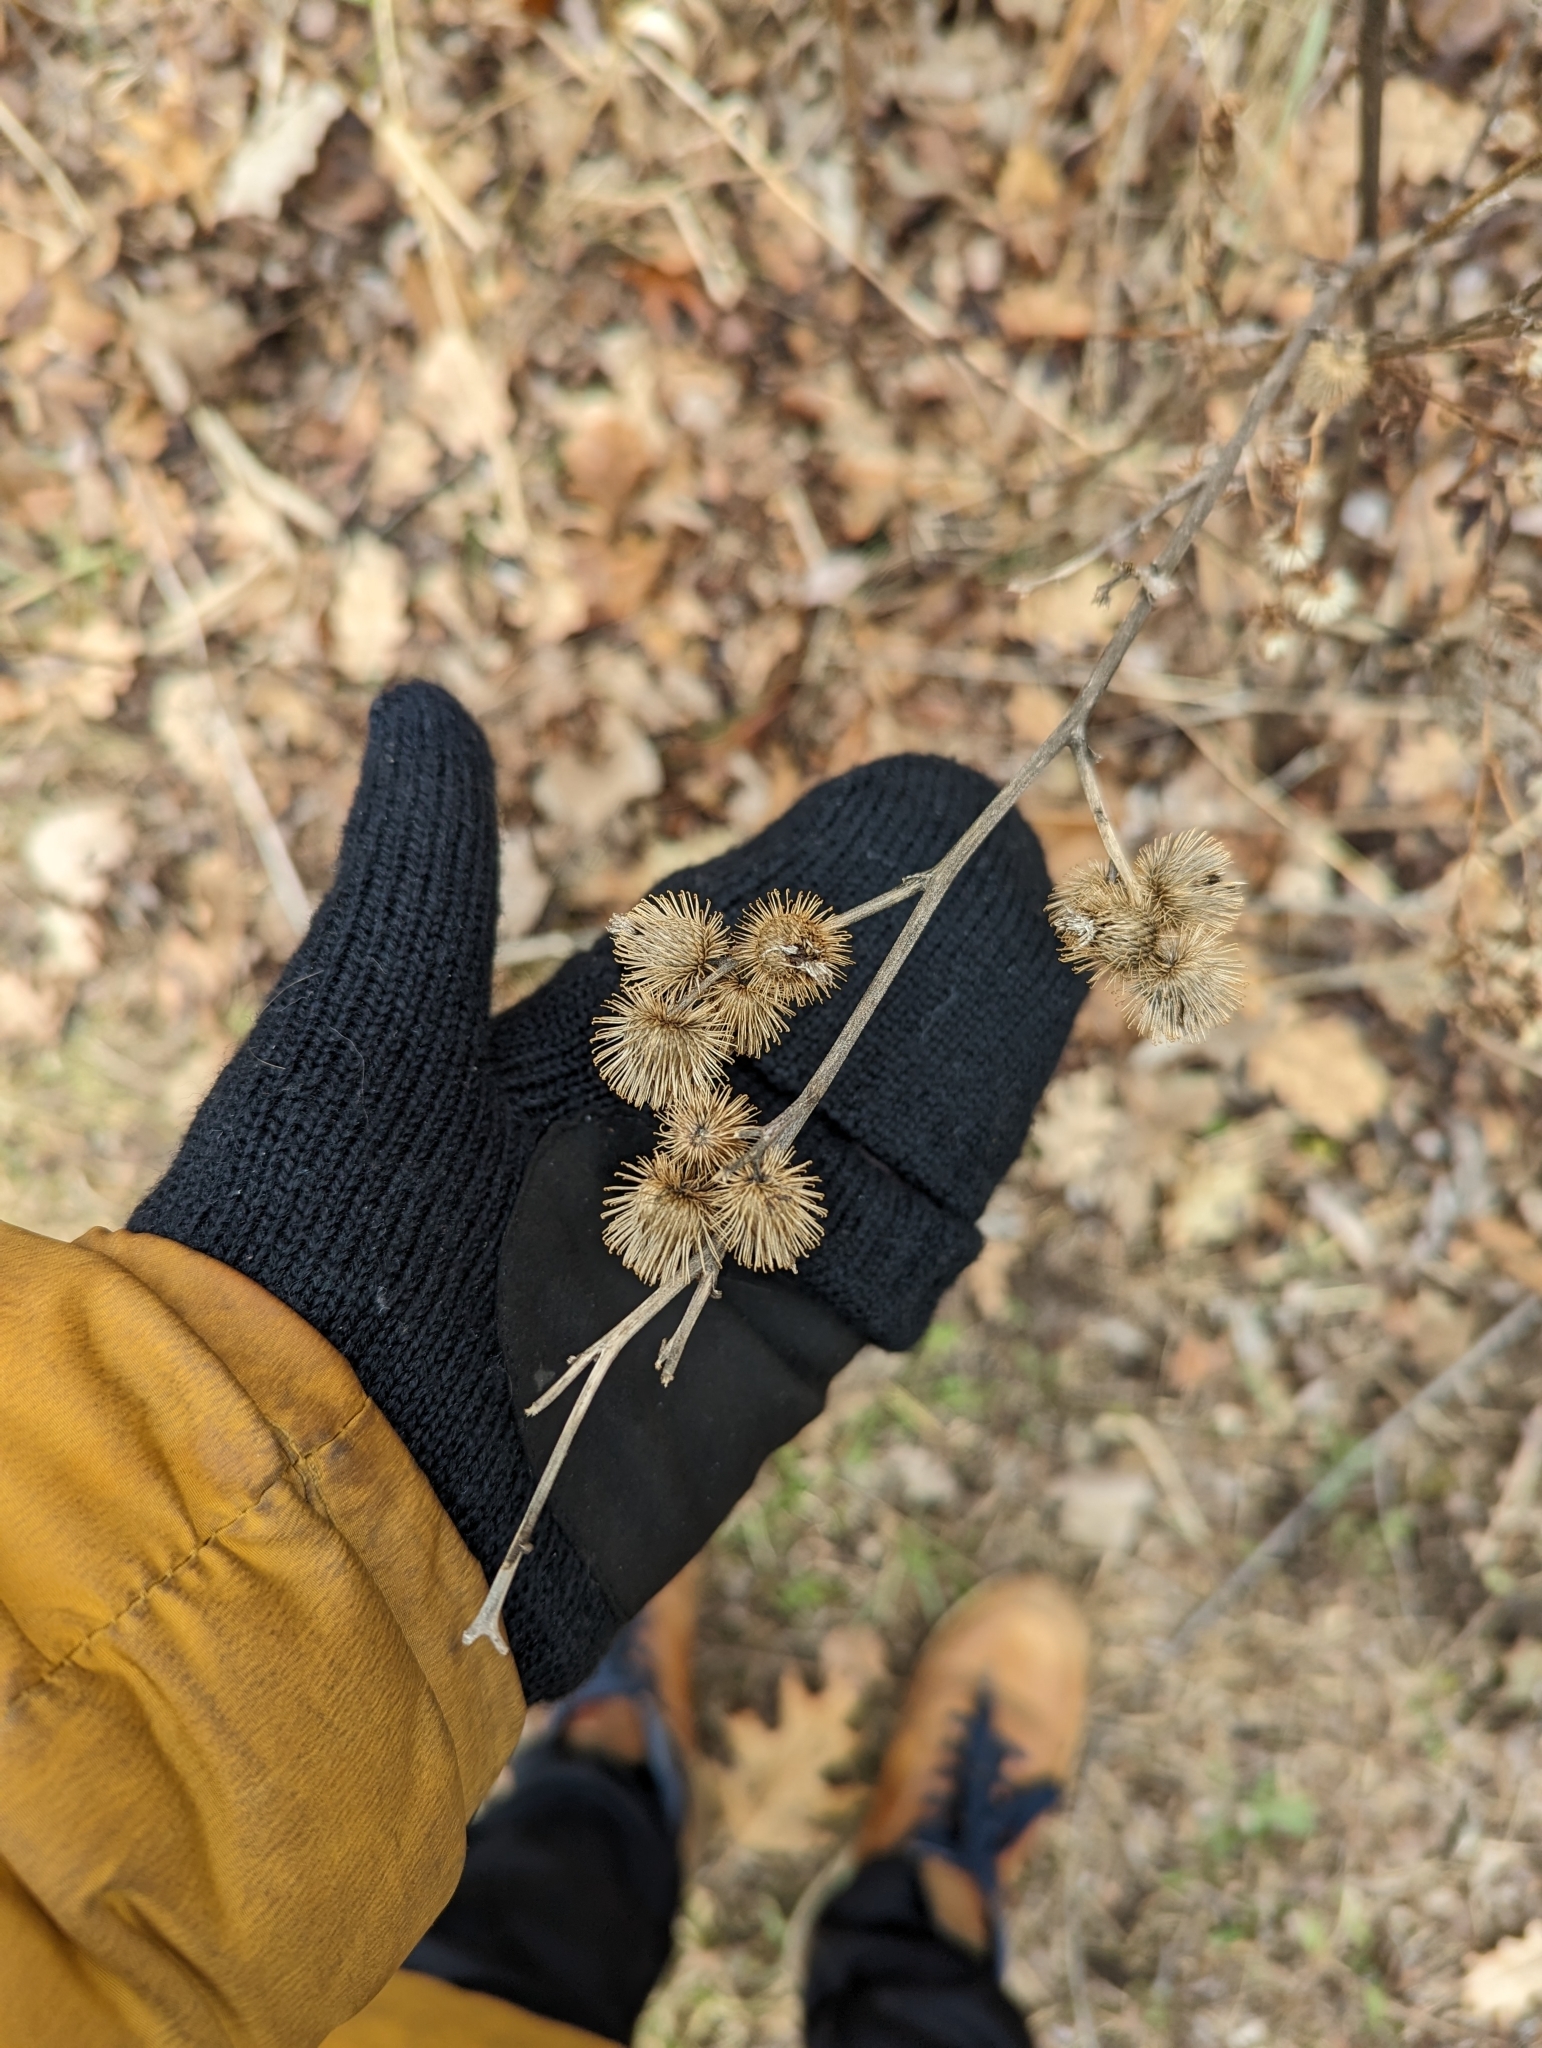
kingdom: Plantae
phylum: Tracheophyta
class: Magnoliopsida
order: Asterales
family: Asteraceae
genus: Arctium
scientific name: Arctium minus
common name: Lesser burdock
